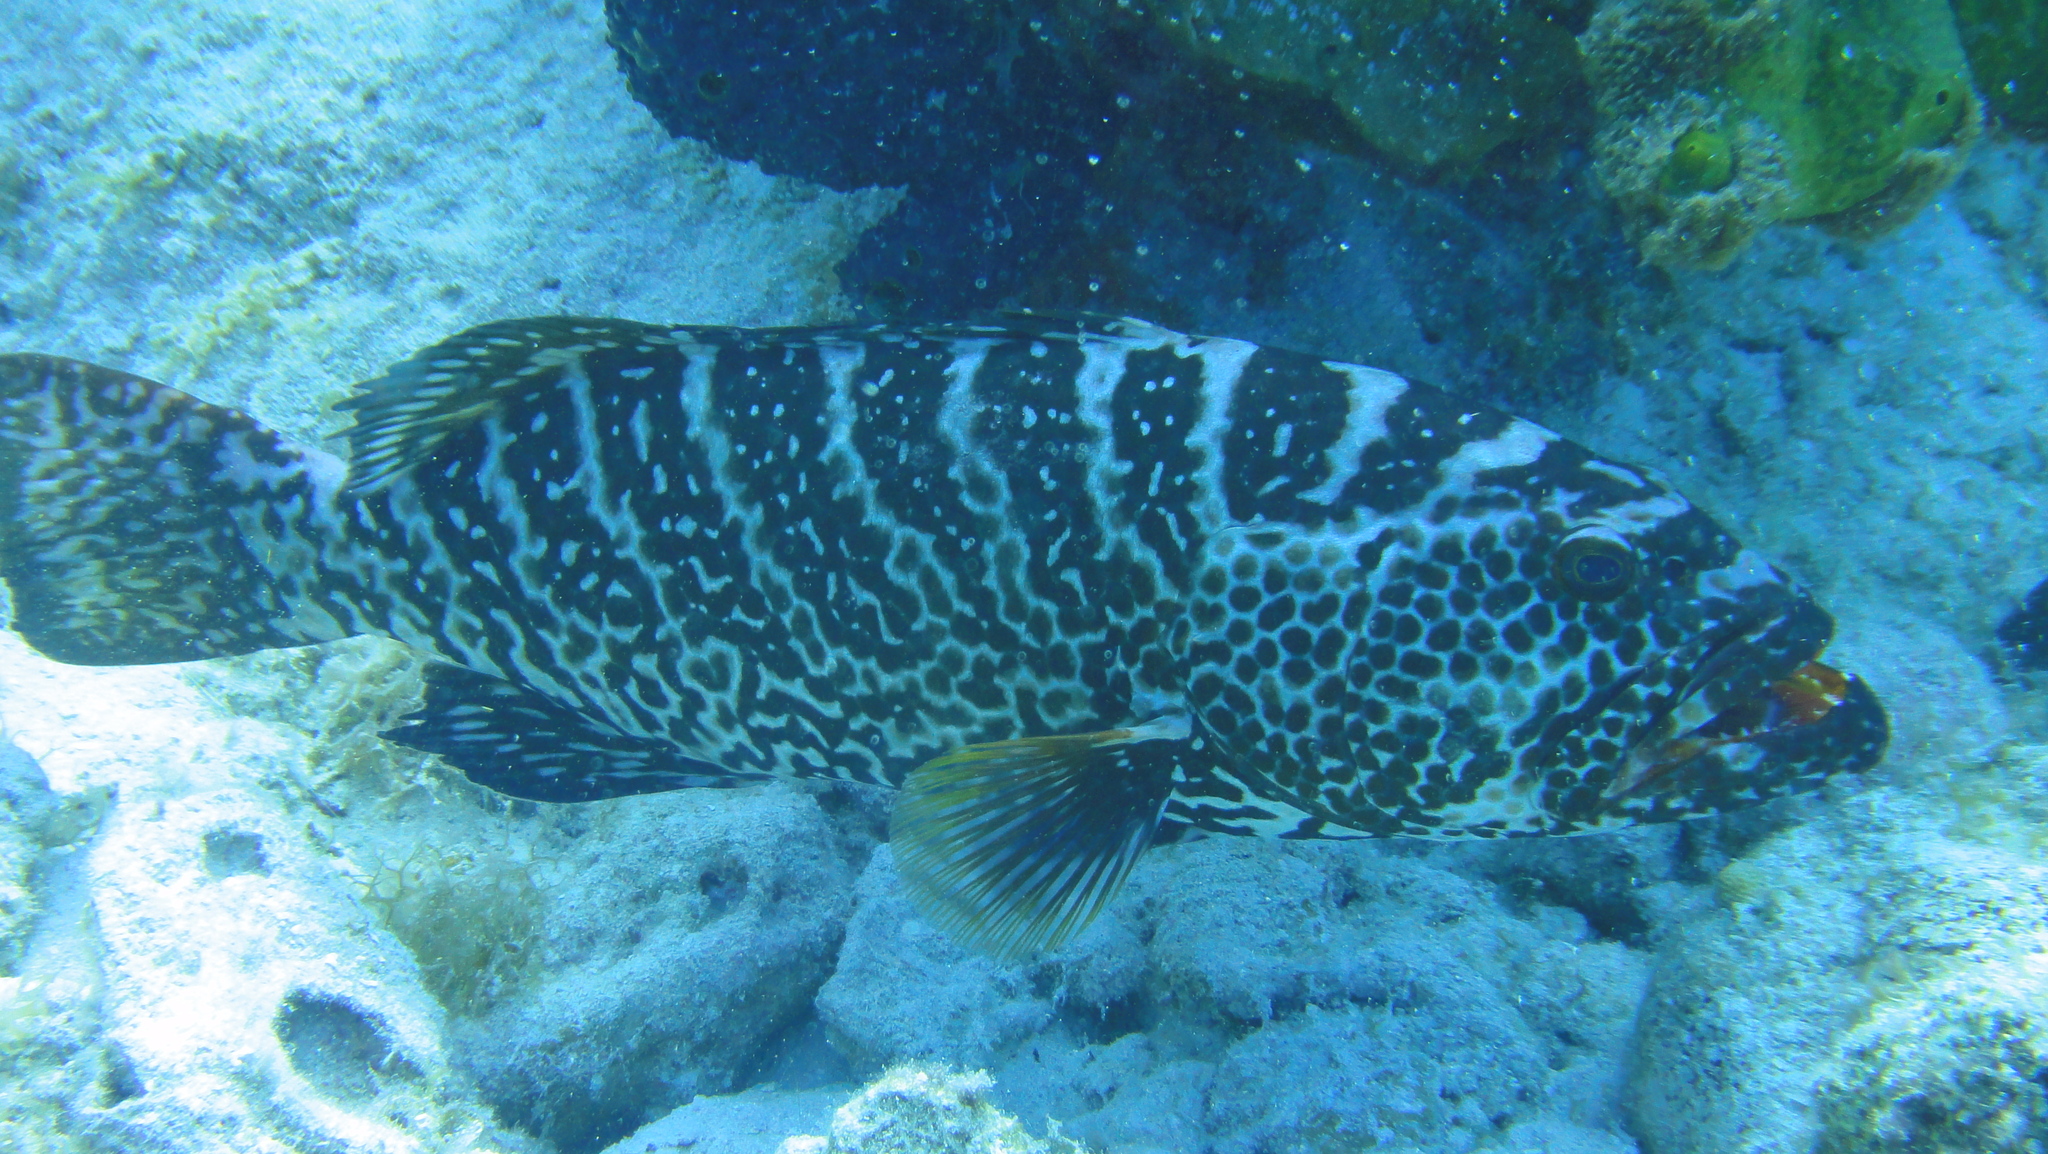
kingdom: Animalia
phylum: Chordata
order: Perciformes
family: Serranidae
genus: Mycteroperca
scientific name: Mycteroperca tigris
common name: Tiger grouper
